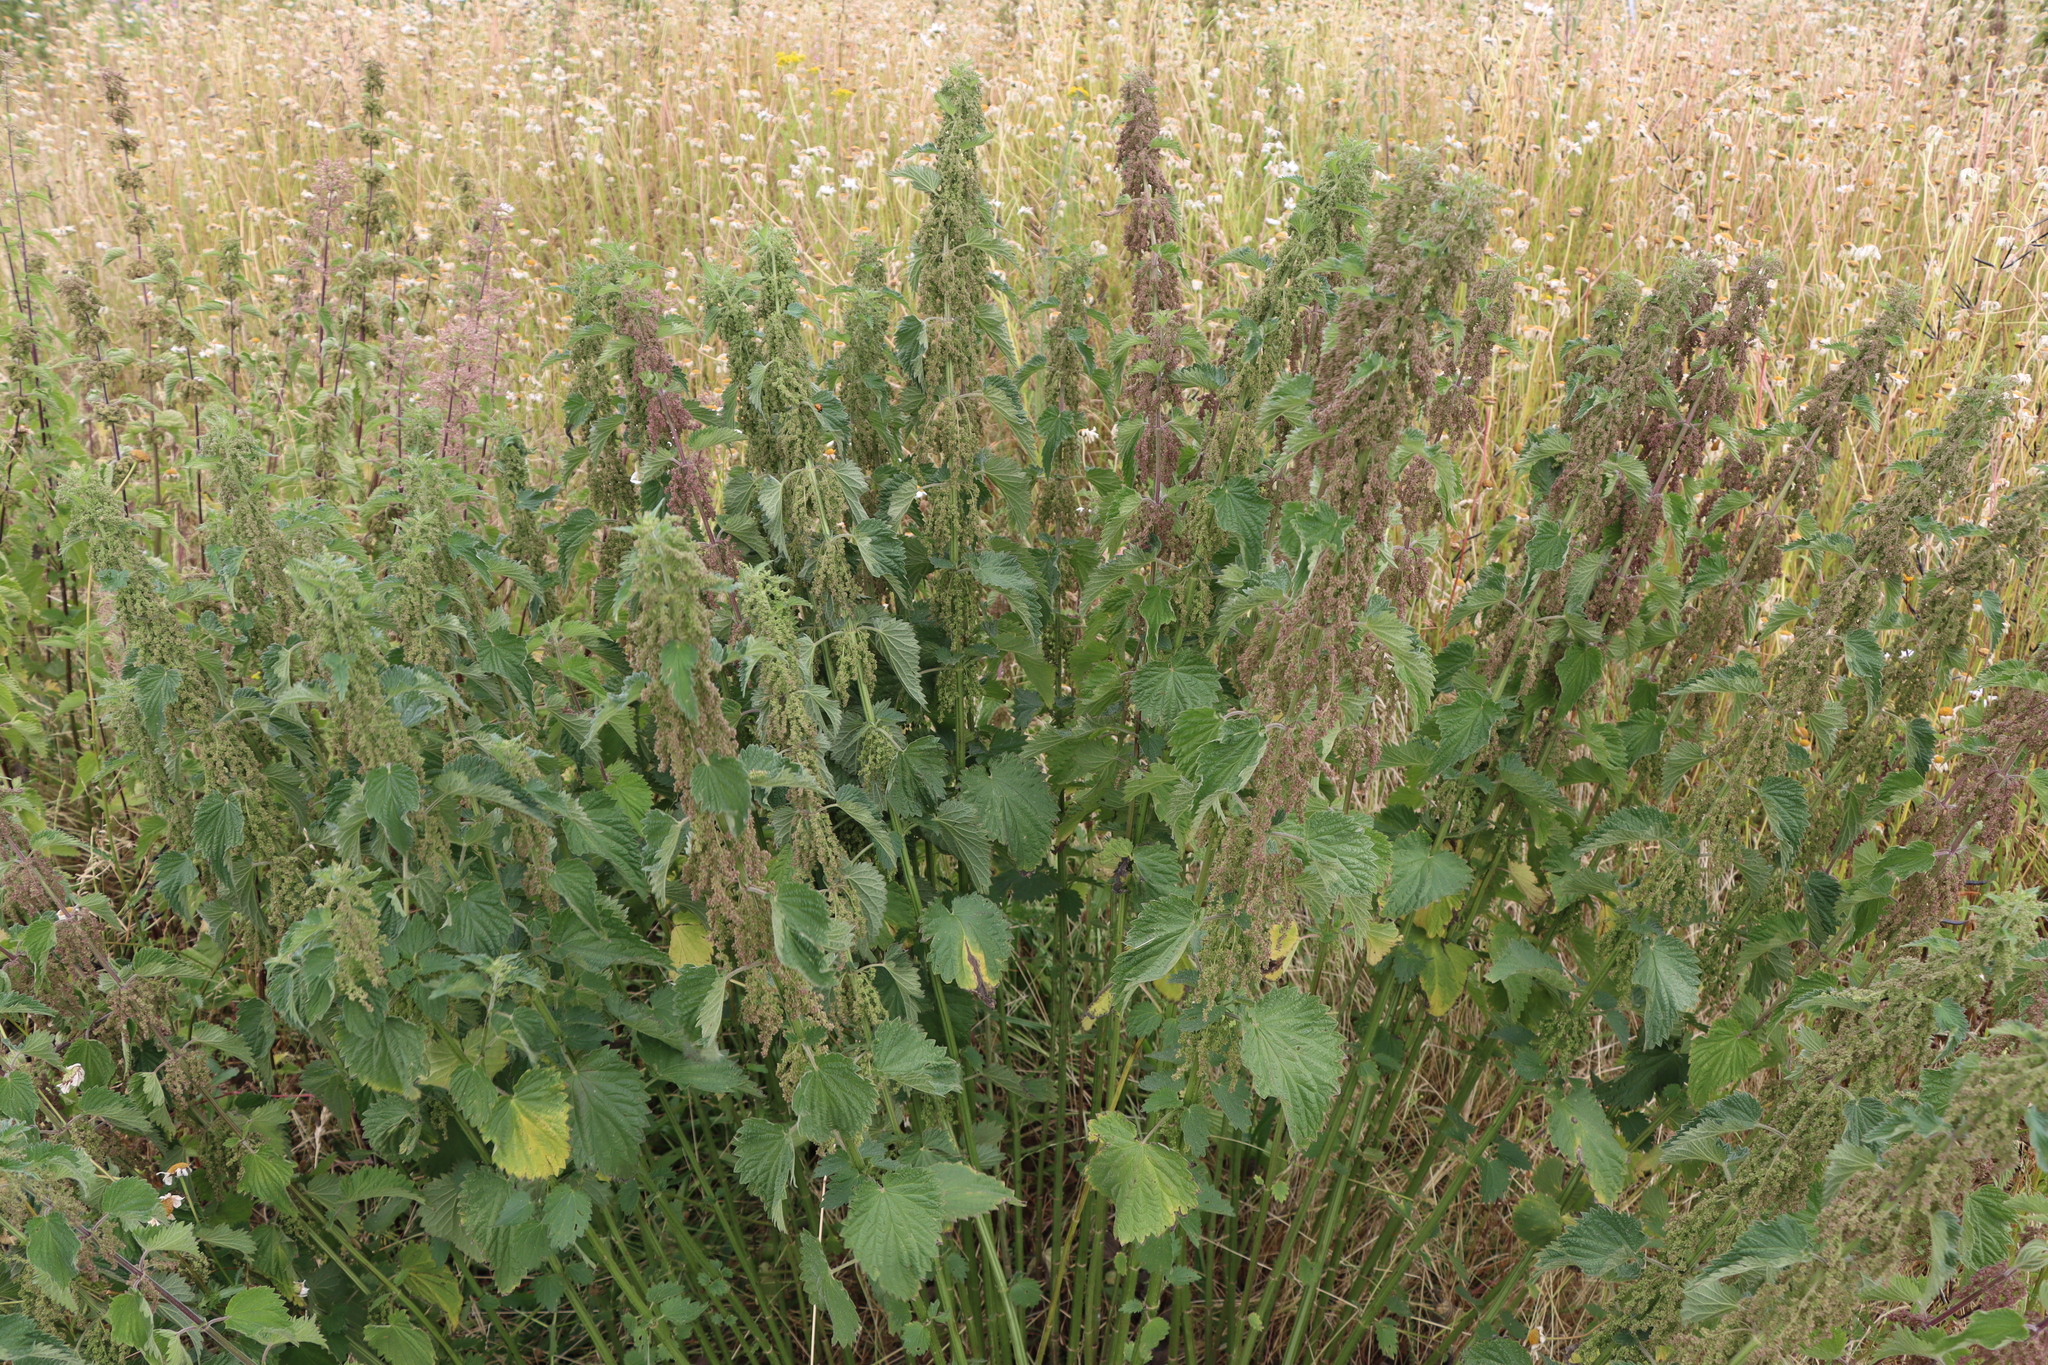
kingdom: Plantae
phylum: Tracheophyta
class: Magnoliopsida
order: Rosales
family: Urticaceae
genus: Urtica
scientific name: Urtica dioica
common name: Common nettle
